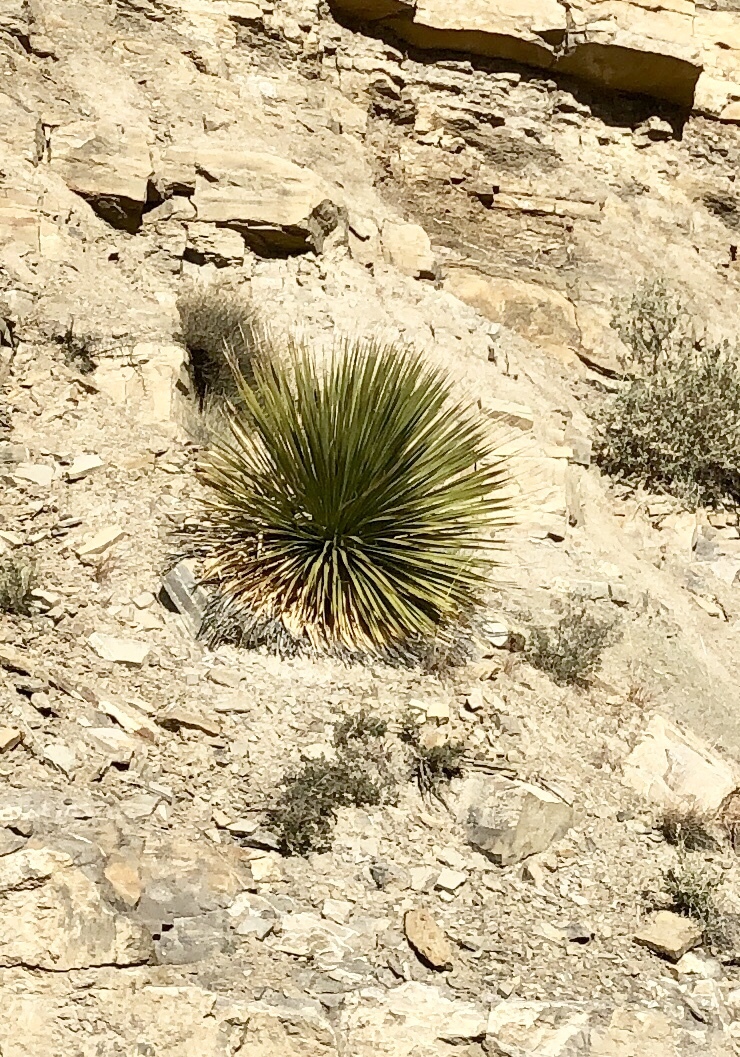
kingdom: Plantae
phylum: Tracheophyta
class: Liliopsida
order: Asparagales
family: Asparagaceae
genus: Dasylirion
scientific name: Dasylirion wheeleri
